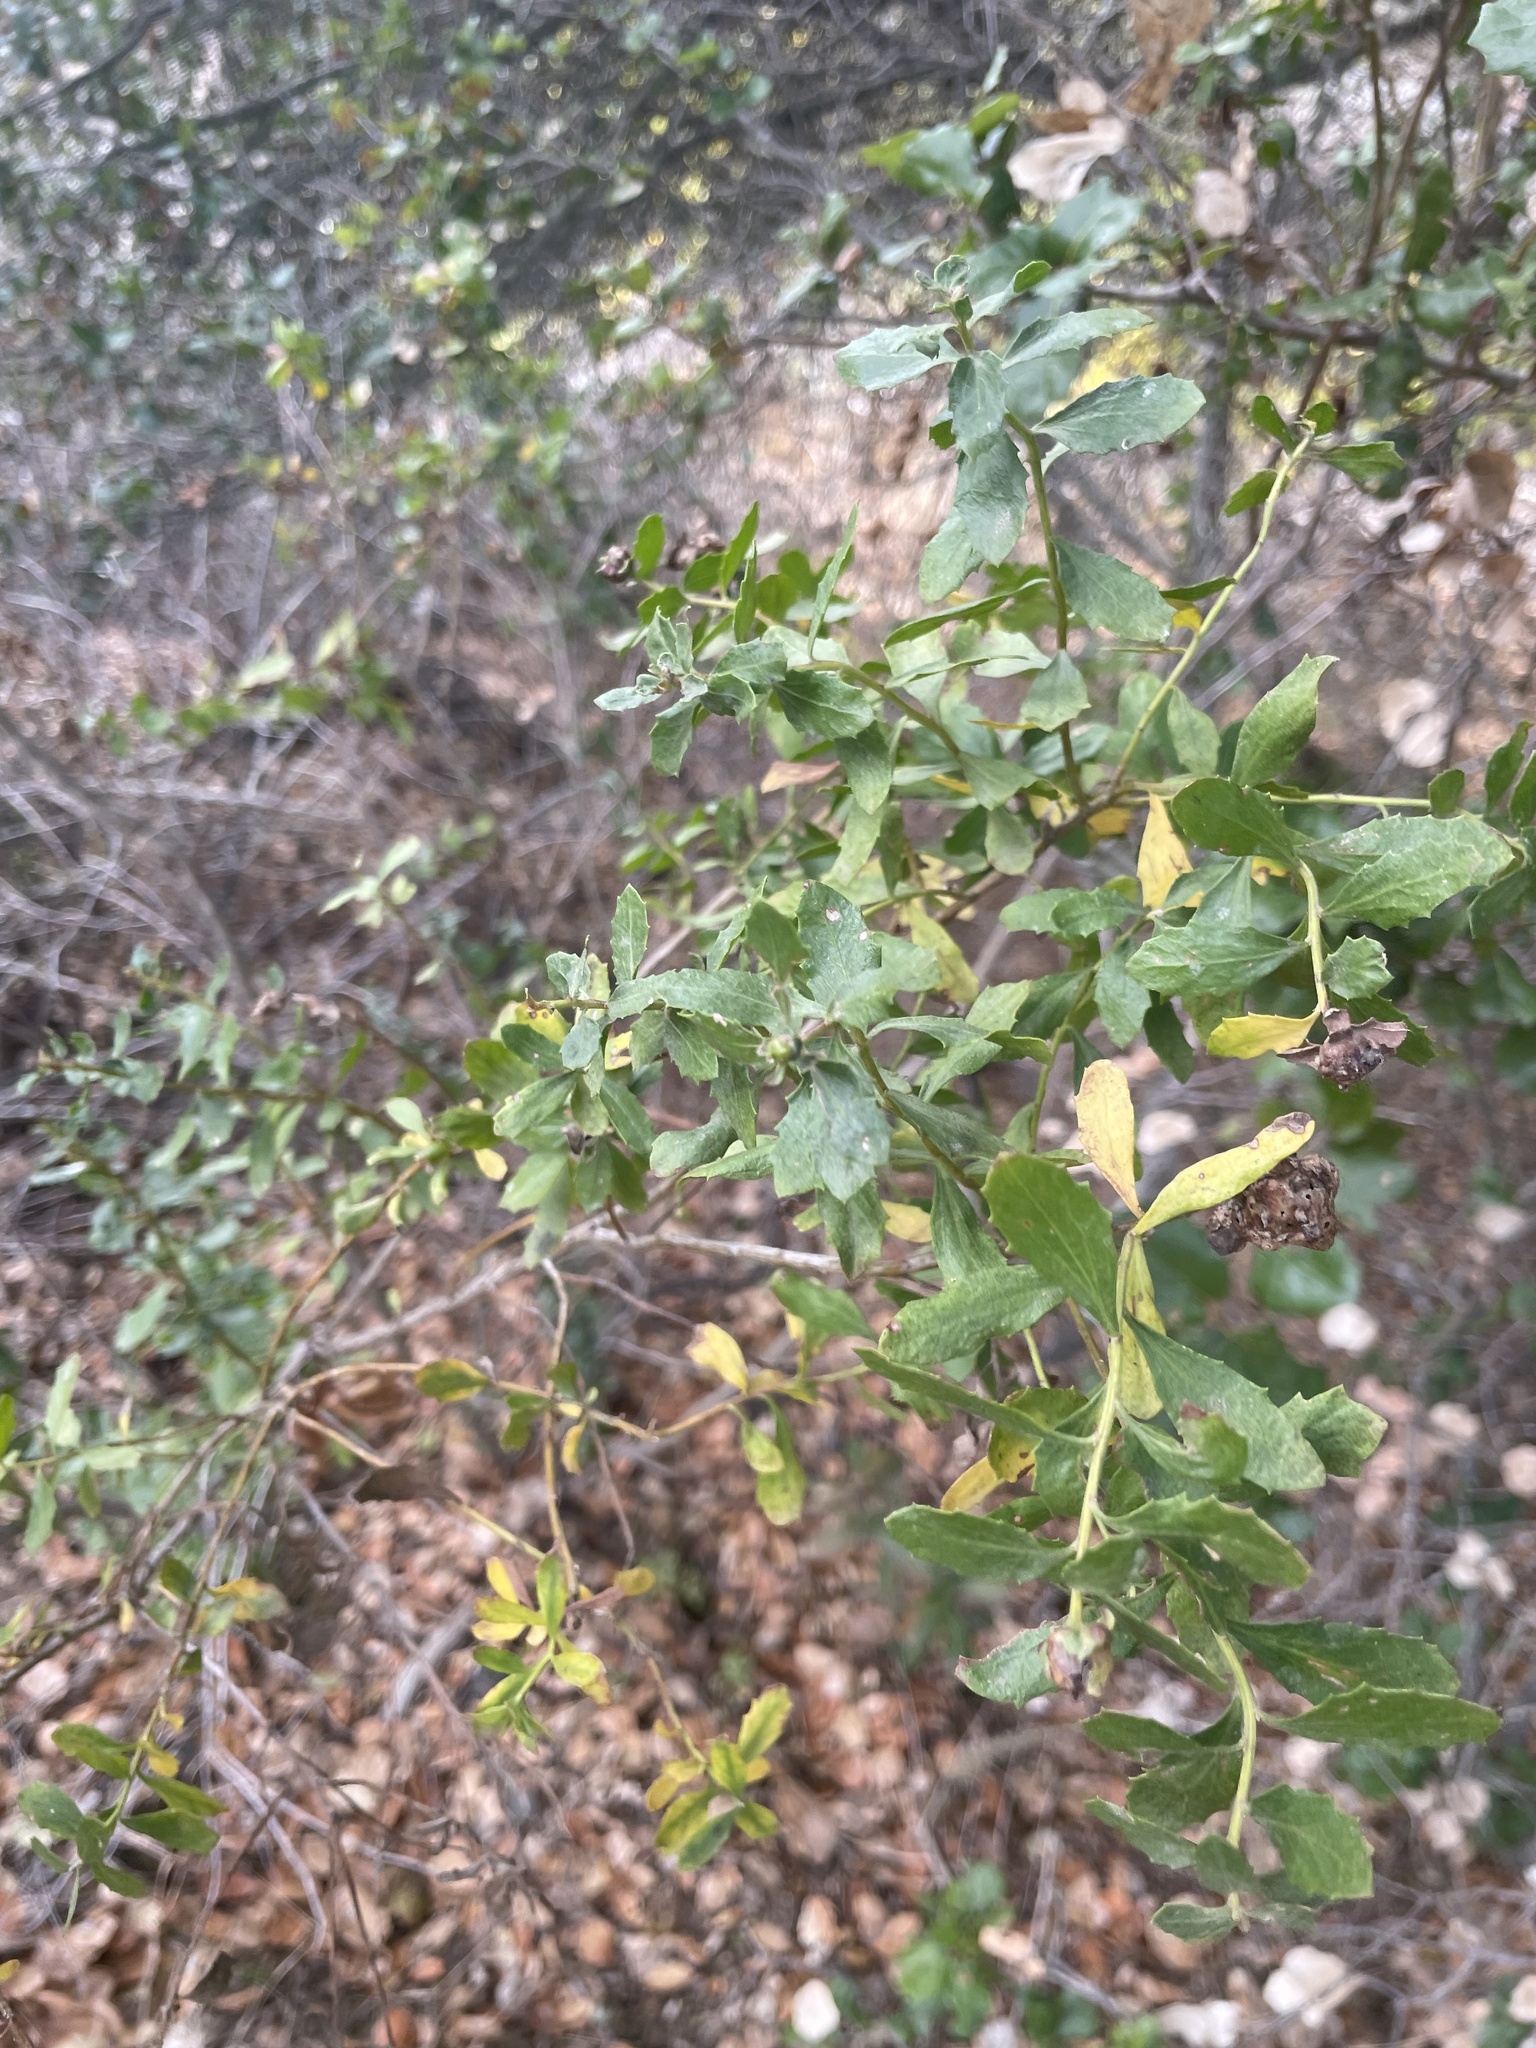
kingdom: Plantae
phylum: Tracheophyta
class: Magnoliopsida
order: Asterales
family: Asteraceae
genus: Baccharis
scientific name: Baccharis pilularis
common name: Coyotebrush
